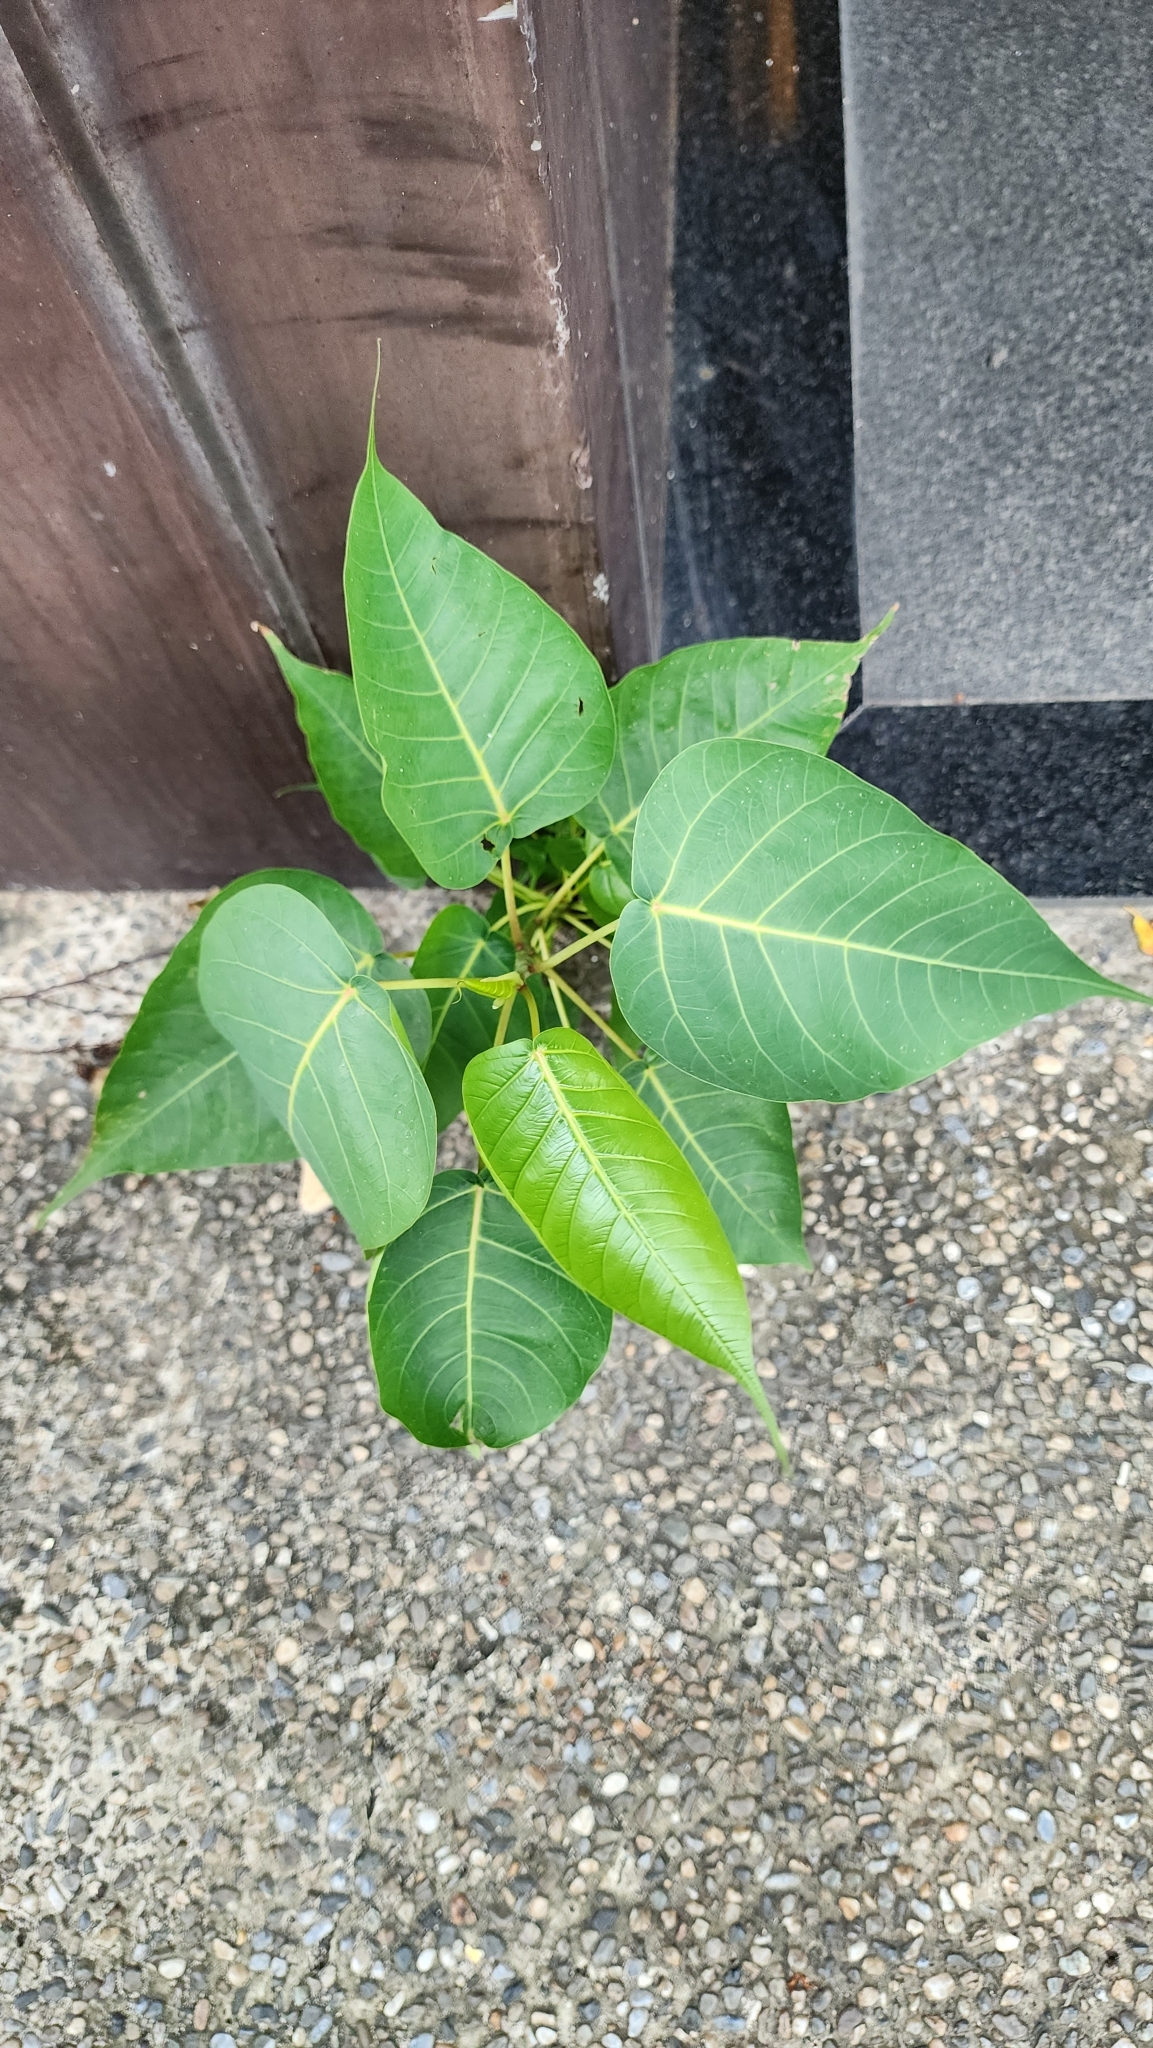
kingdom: Plantae
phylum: Tracheophyta
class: Magnoliopsida
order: Rosales
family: Moraceae
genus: Ficus
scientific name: Ficus religiosa
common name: Bodhi tree
